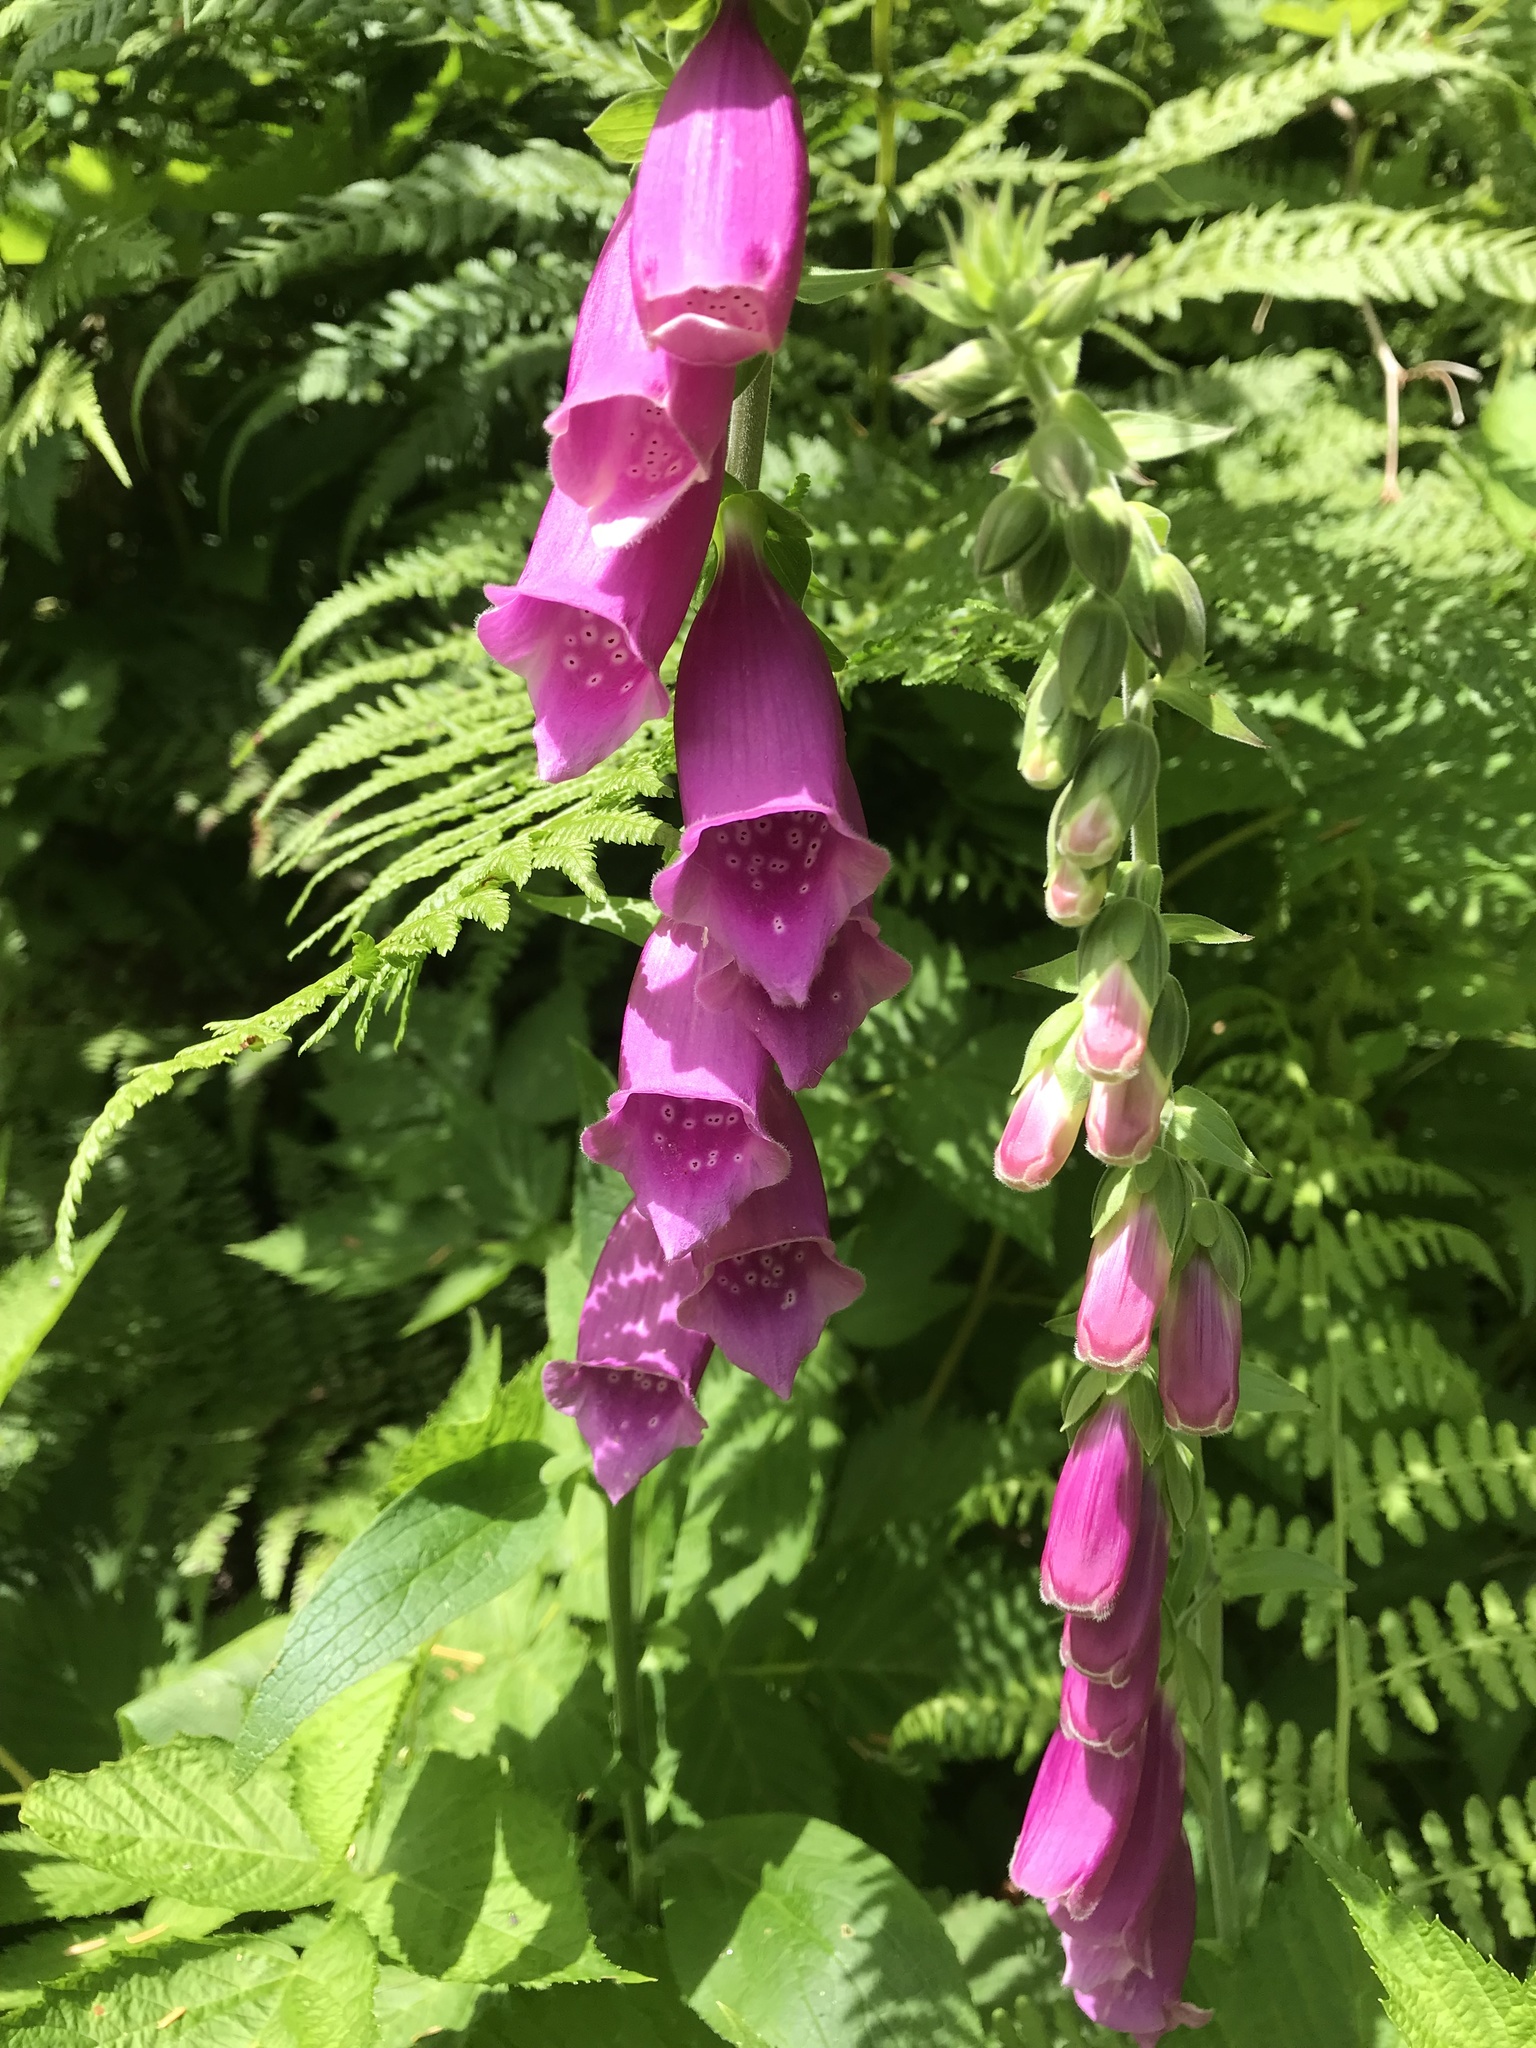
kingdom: Plantae
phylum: Tracheophyta
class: Magnoliopsida
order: Lamiales
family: Plantaginaceae
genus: Digitalis
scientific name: Digitalis purpurea
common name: Foxglove
